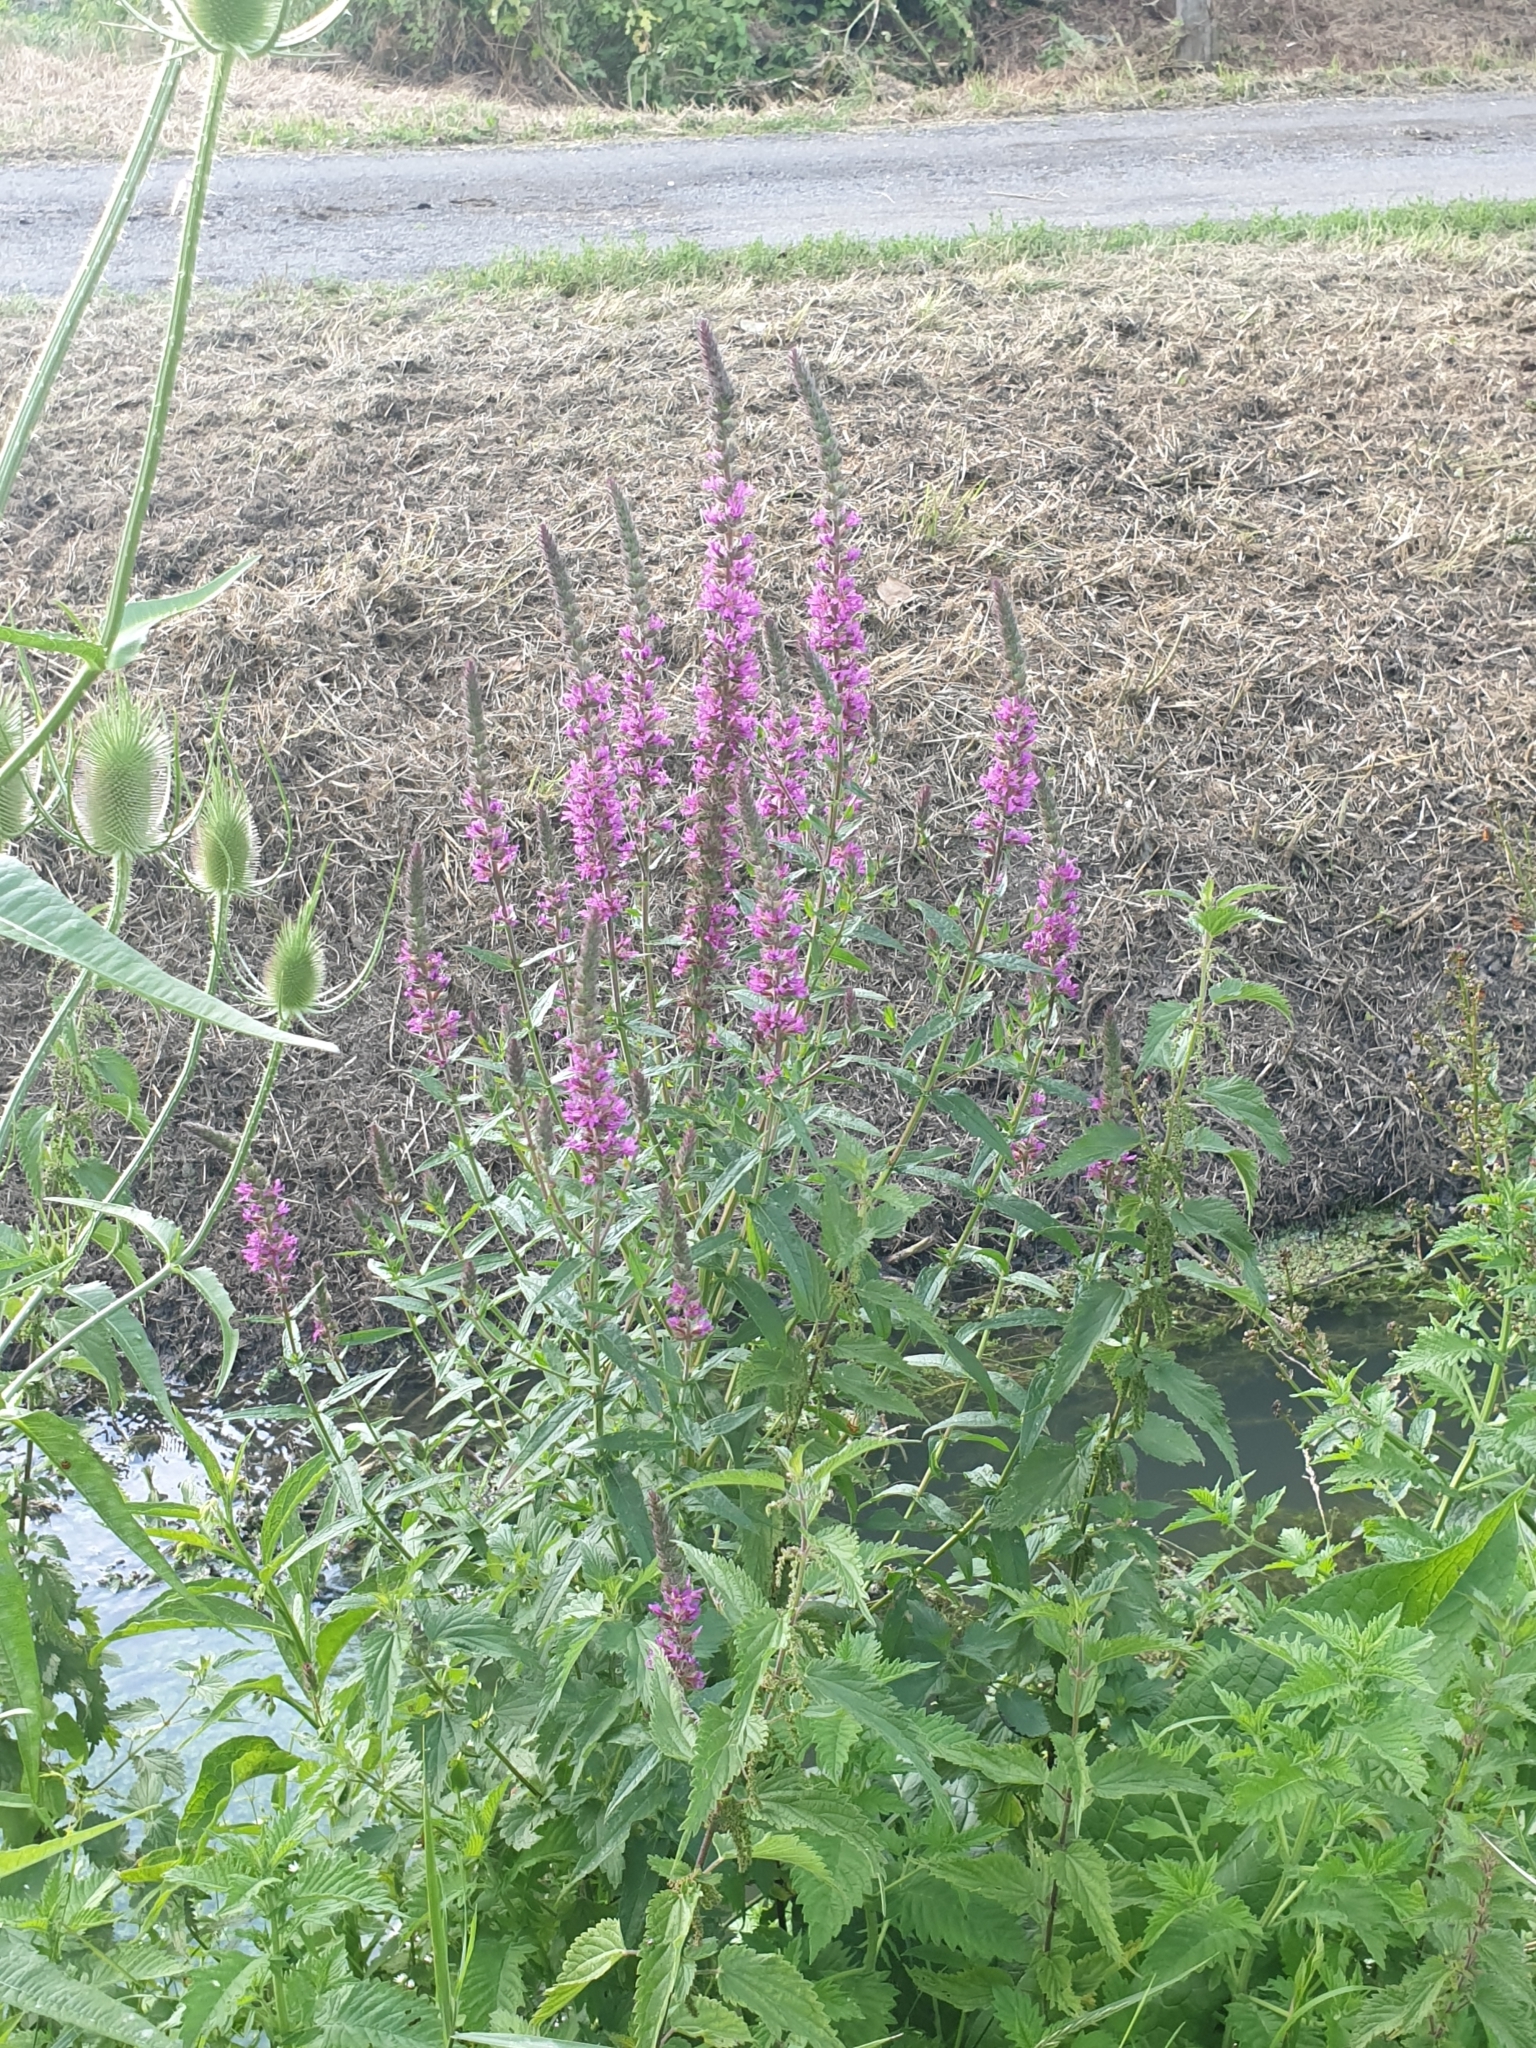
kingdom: Plantae
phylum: Tracheophyta
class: Magnoliopsida
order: Myrtales
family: Lythraceae
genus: Lythrum
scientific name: Lythrum salicaria
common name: Purple loosestrife
